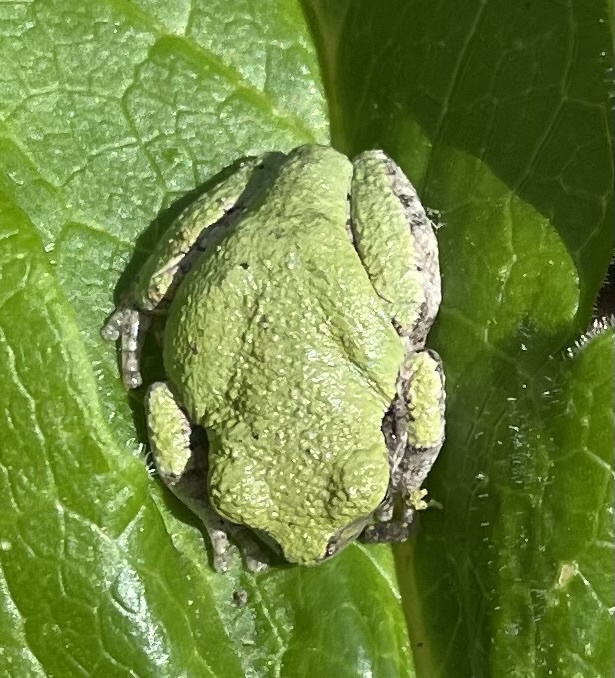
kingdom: Animalia
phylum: Chordata
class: Amphibia
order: Anura
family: Hylidae
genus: Dryophytes
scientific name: Dryophytes chrysoscelis
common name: Cope's gray treefrog
